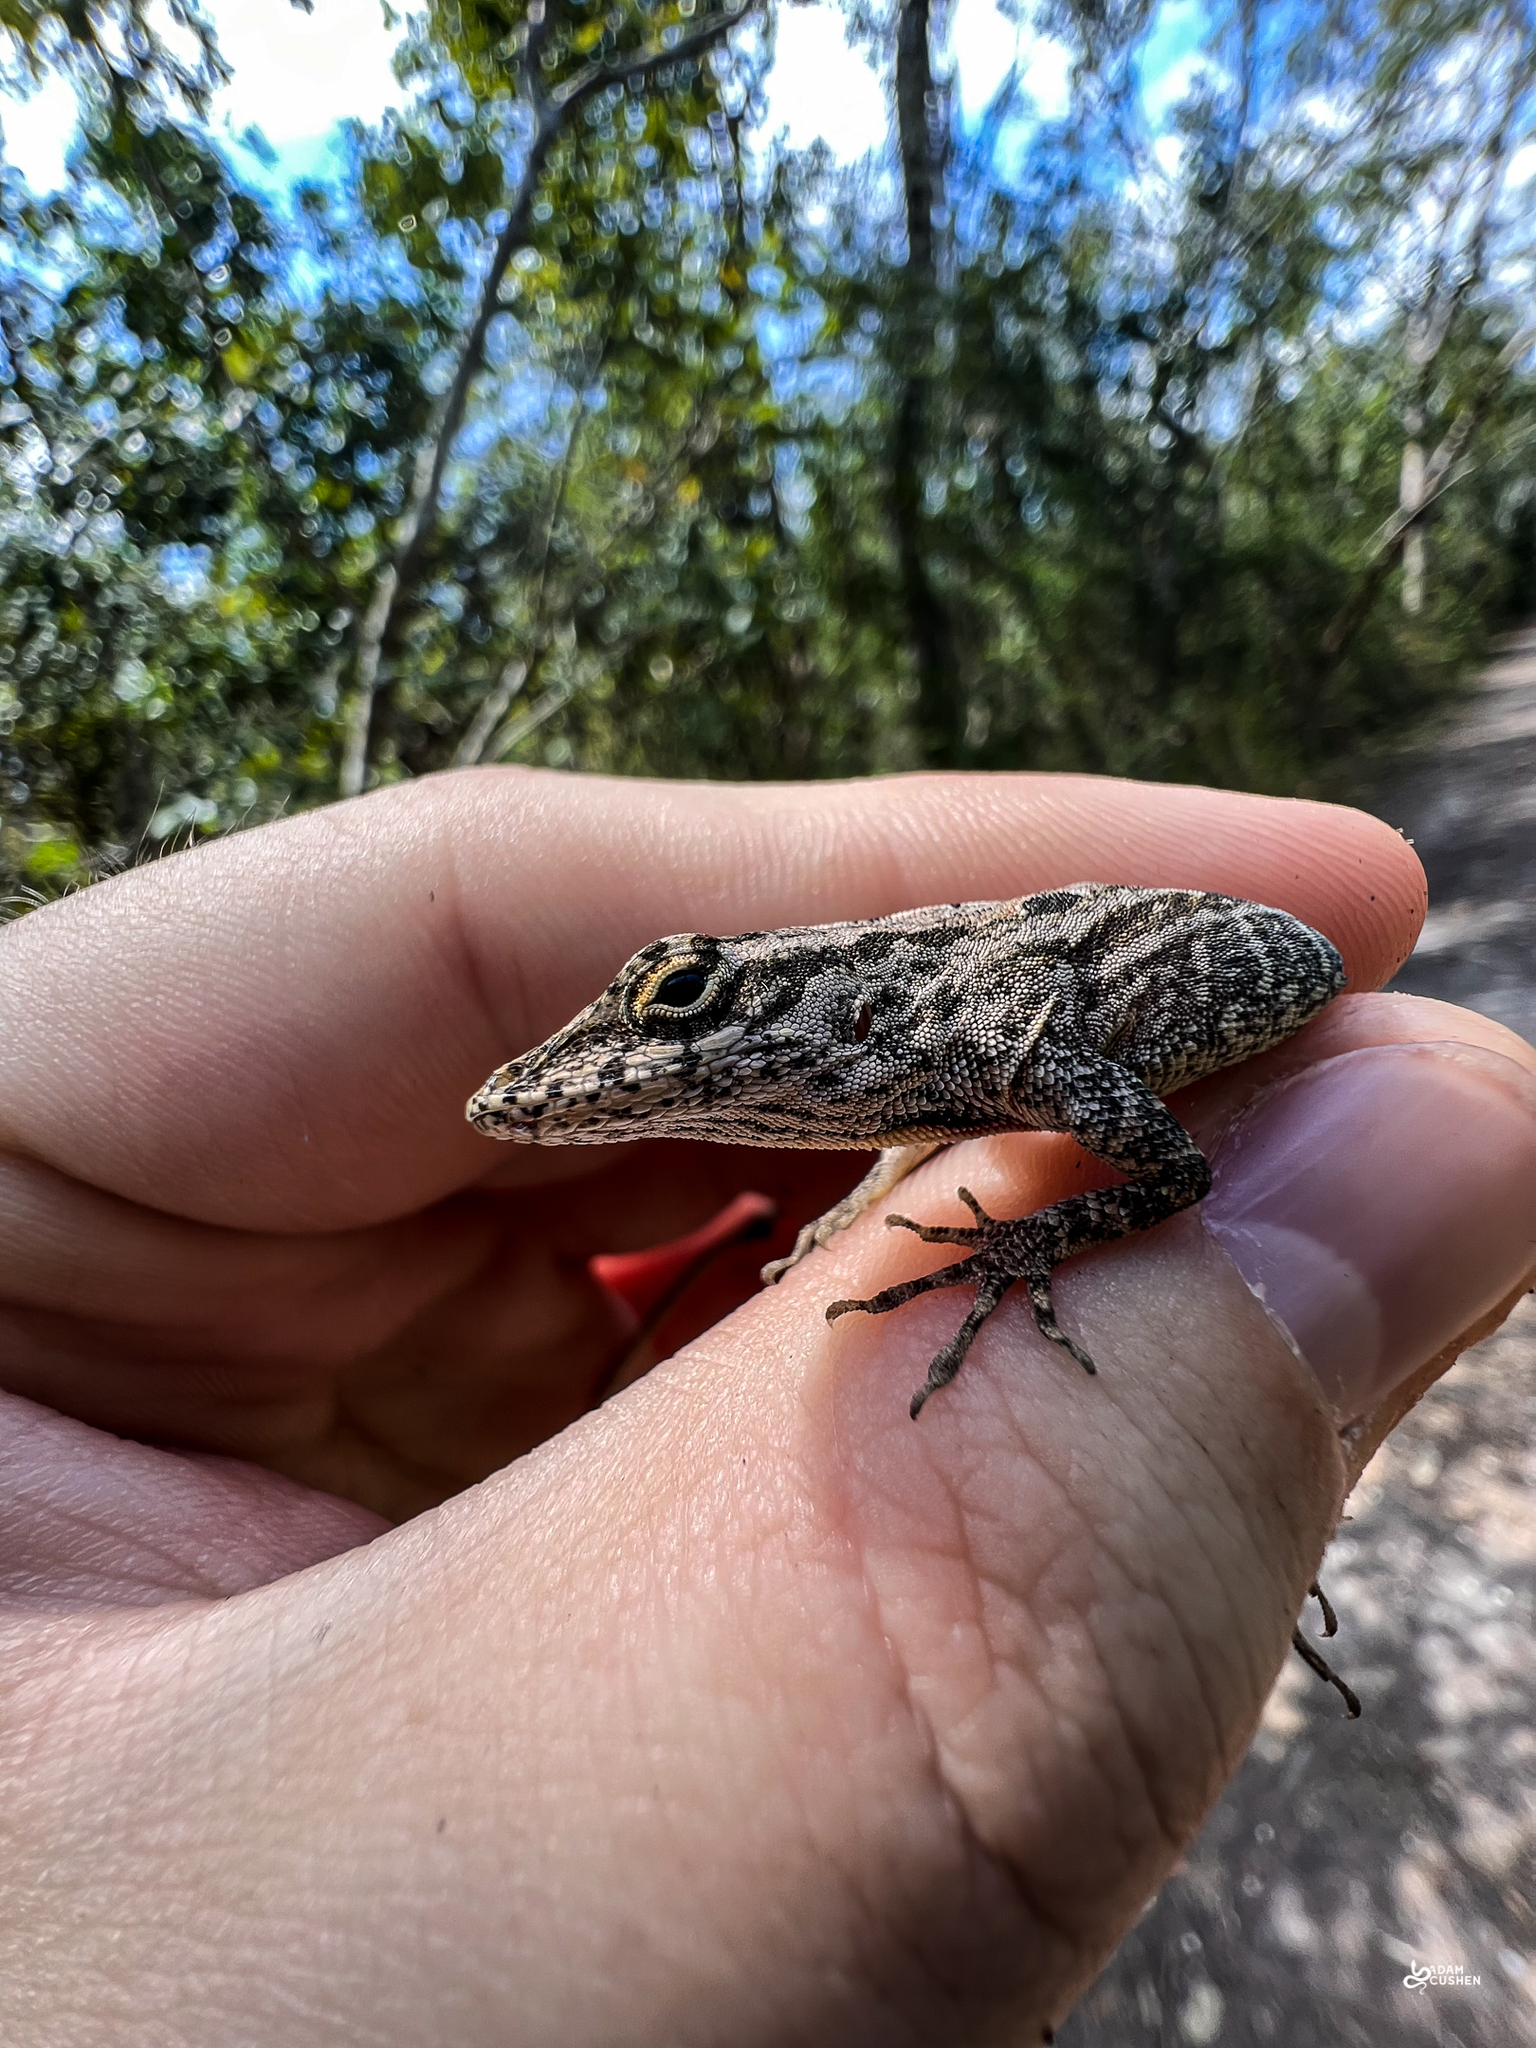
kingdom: Animalia
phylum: Chordata
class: Squamata
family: Dactyloidae
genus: Anolis
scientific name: Anolis sagrei
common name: Brown anole
